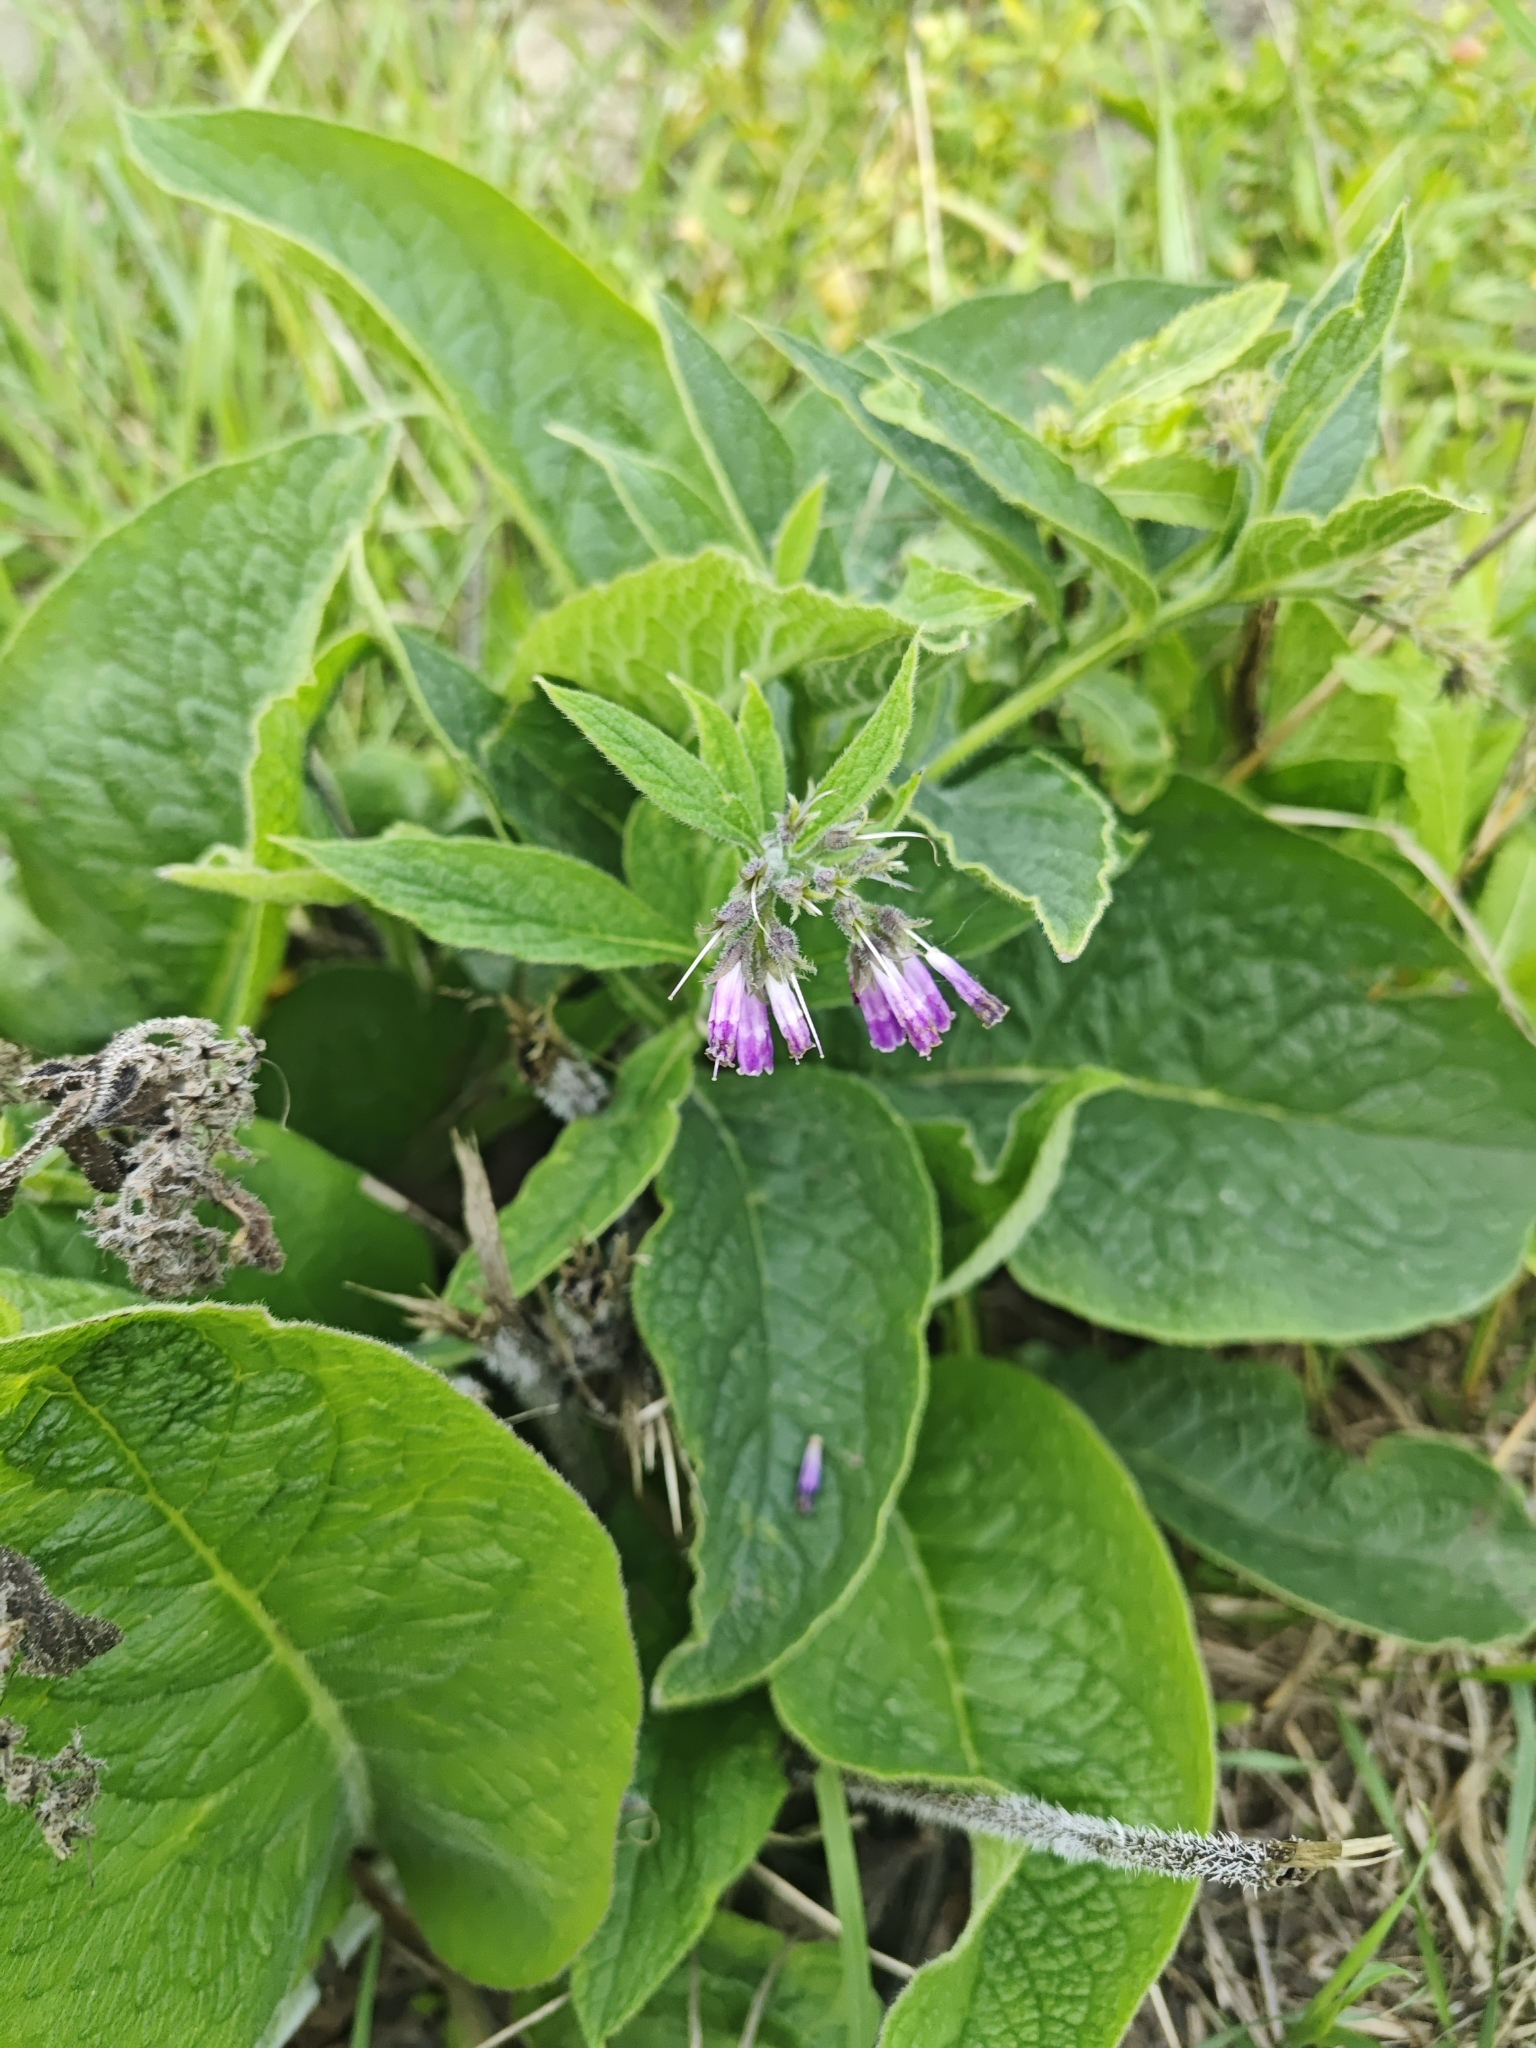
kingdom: Plantae
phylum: Tracheophyta
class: Magnoliopsida
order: Boraginales
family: Boraginaceae
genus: Symphytum
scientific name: Symphytum officinale
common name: Common comfrey
